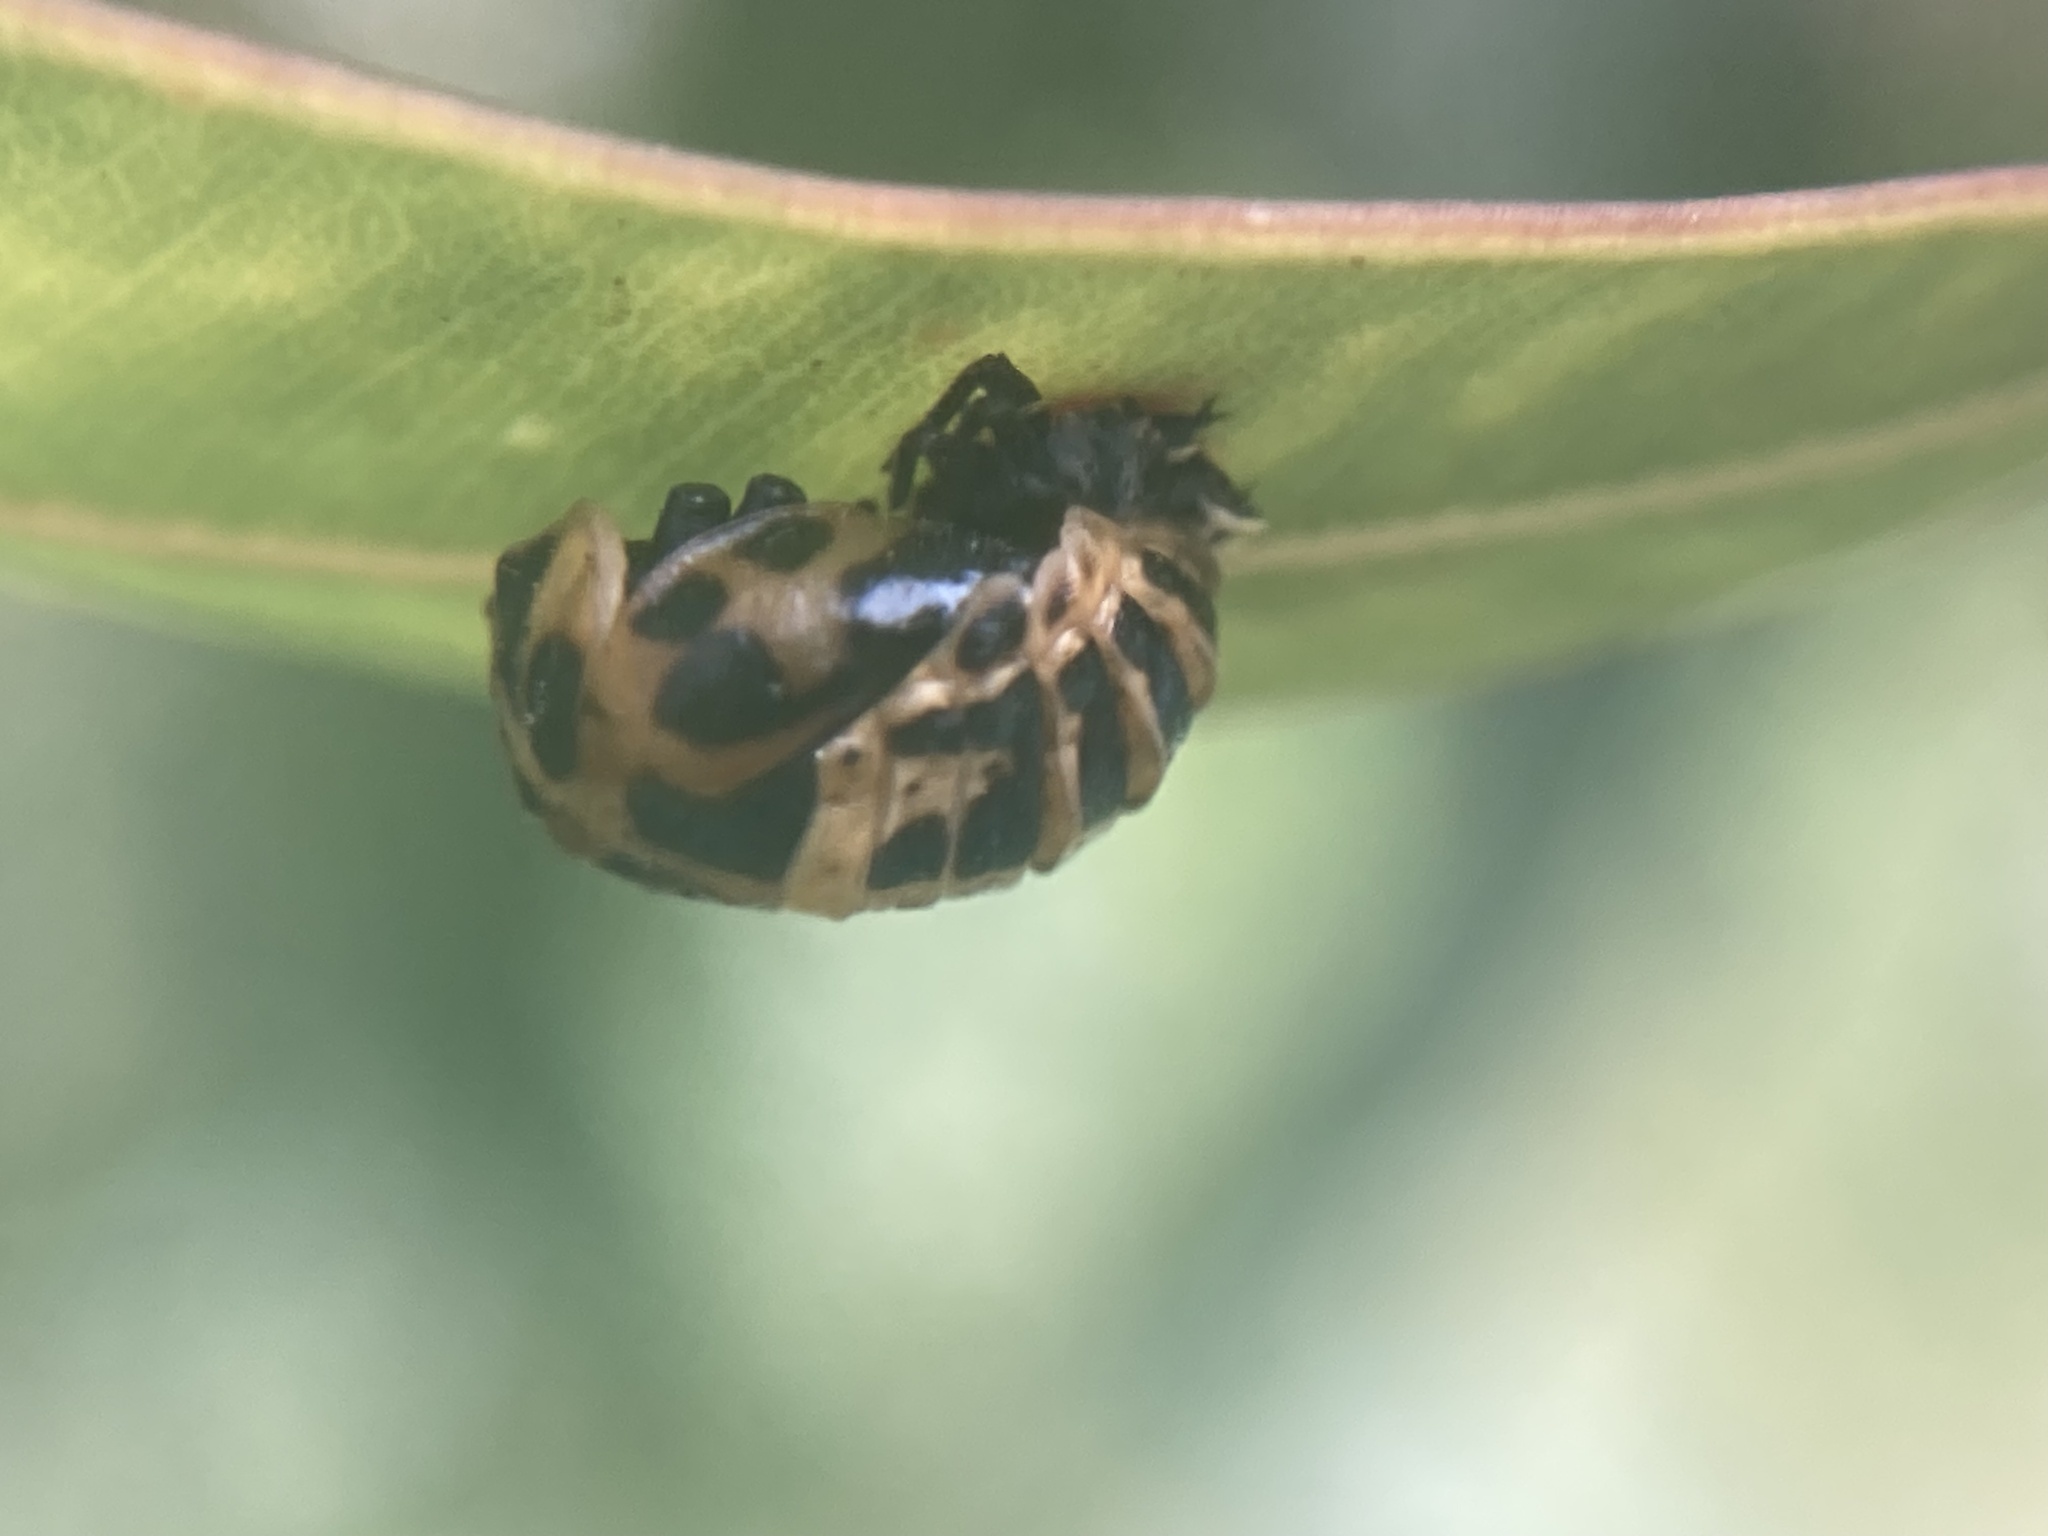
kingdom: Animalia
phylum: Arthropoda
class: Insecta
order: Coleoptera
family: Coccinellidae
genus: Harmonia
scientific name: Harmonia conformis
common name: Common spotted ladybird beetle
